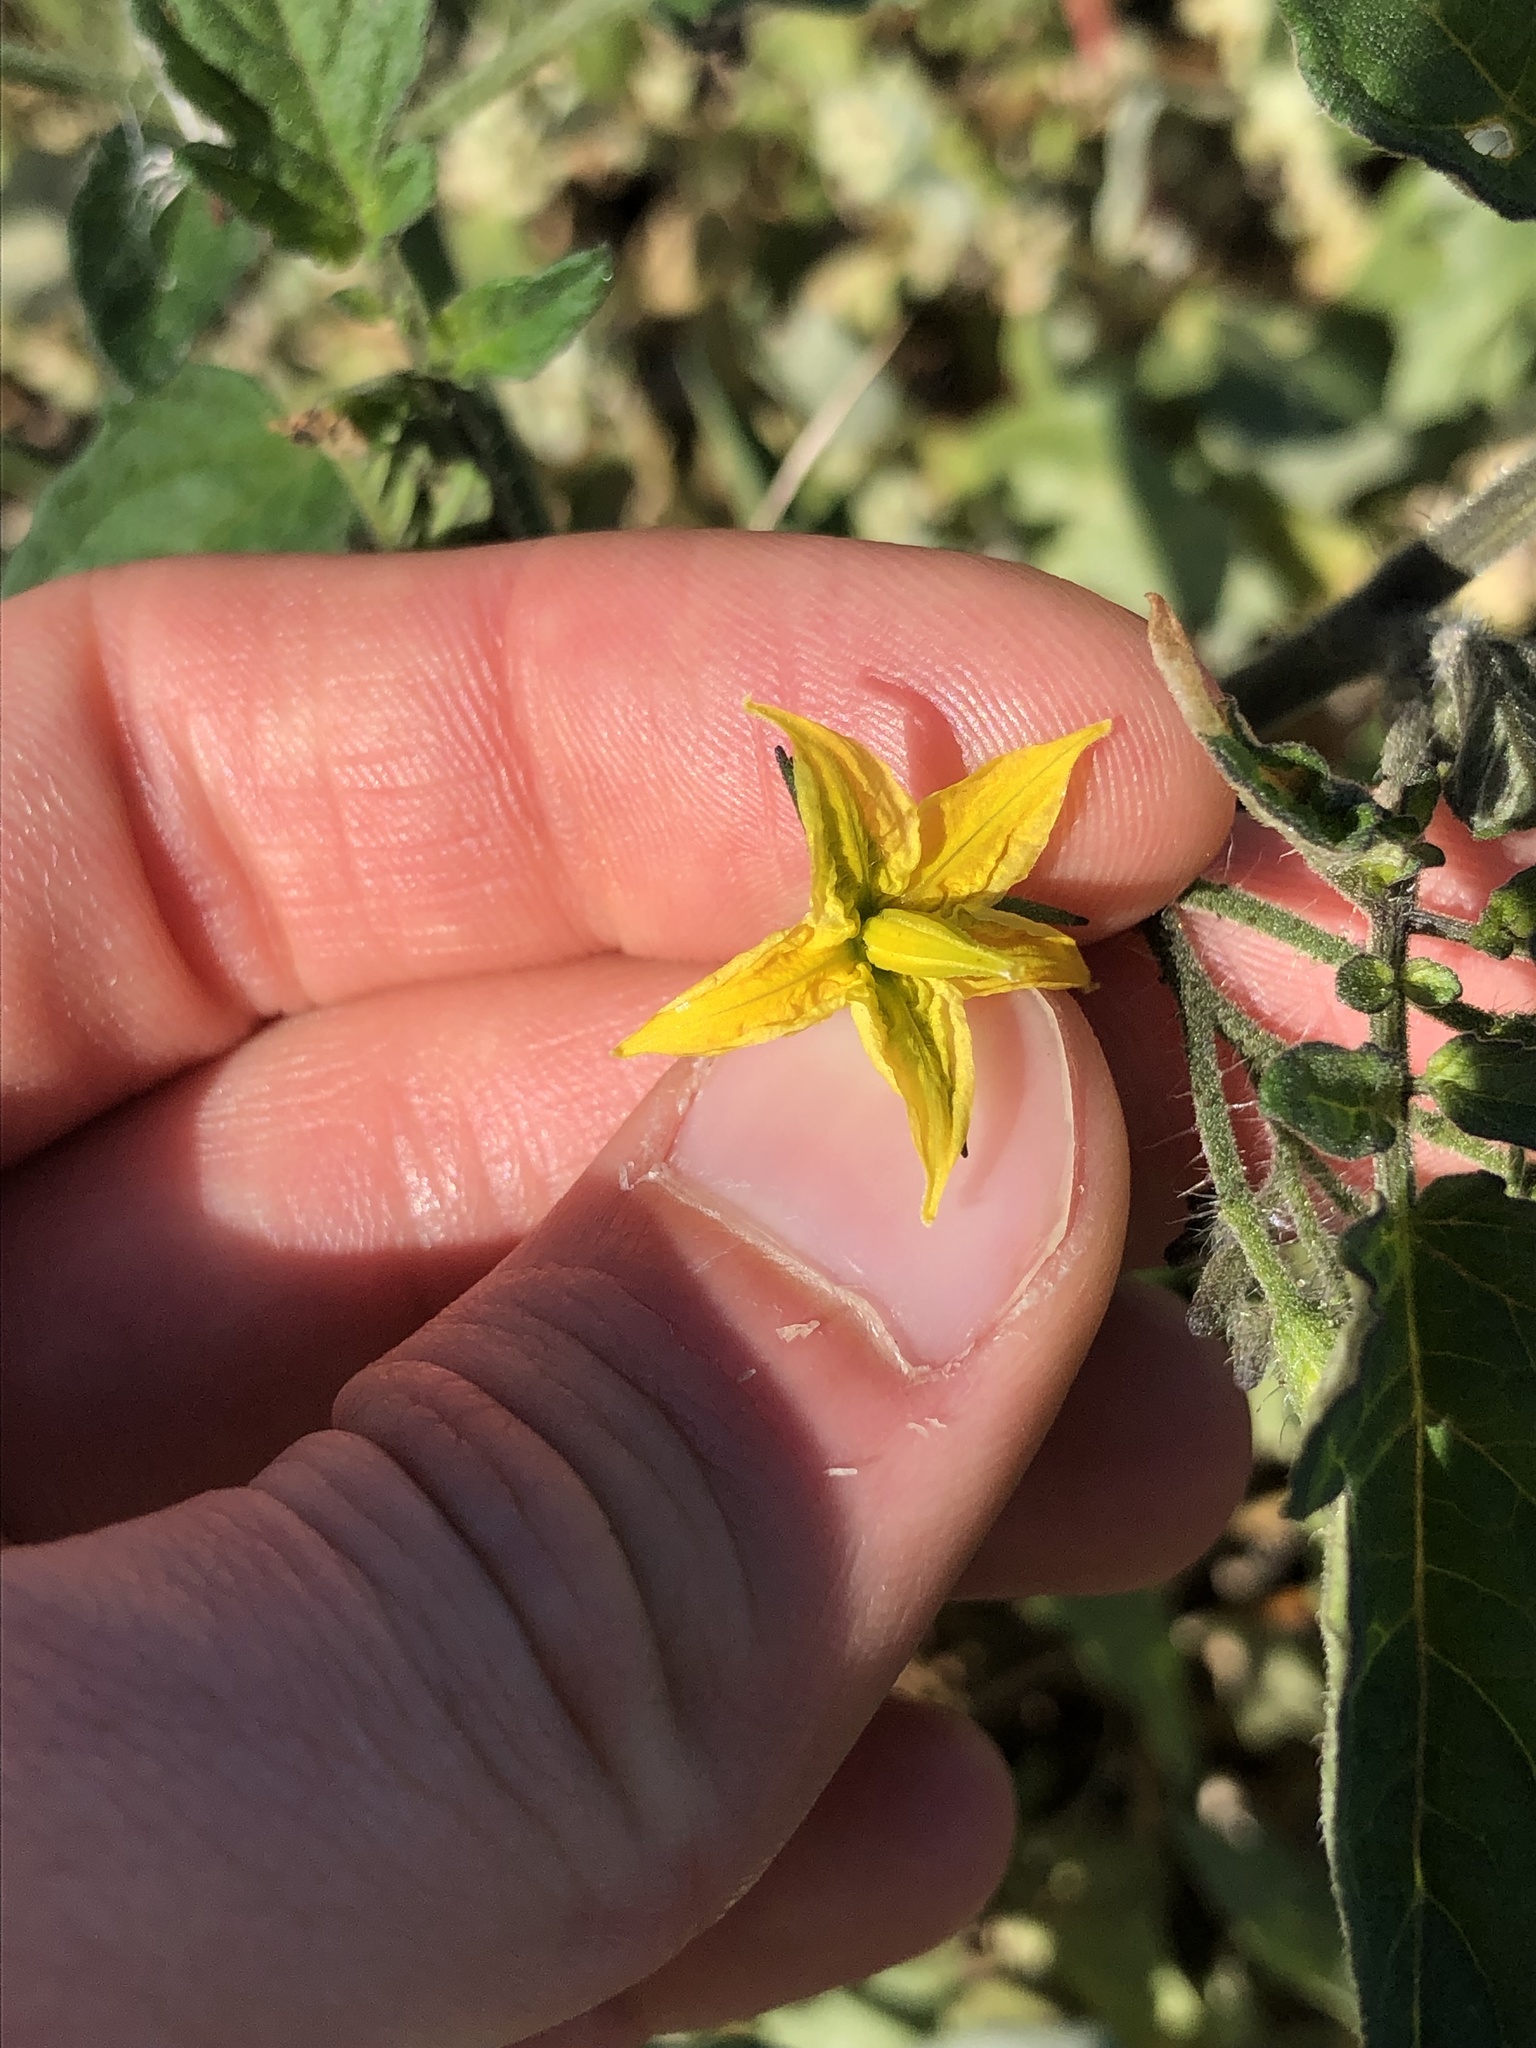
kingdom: Plantae
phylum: Tracheophyta
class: Magnoliopsida
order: Solanales
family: Solanaceae
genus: Solanum
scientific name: Solanum lycopersicum
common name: Garden tomato
